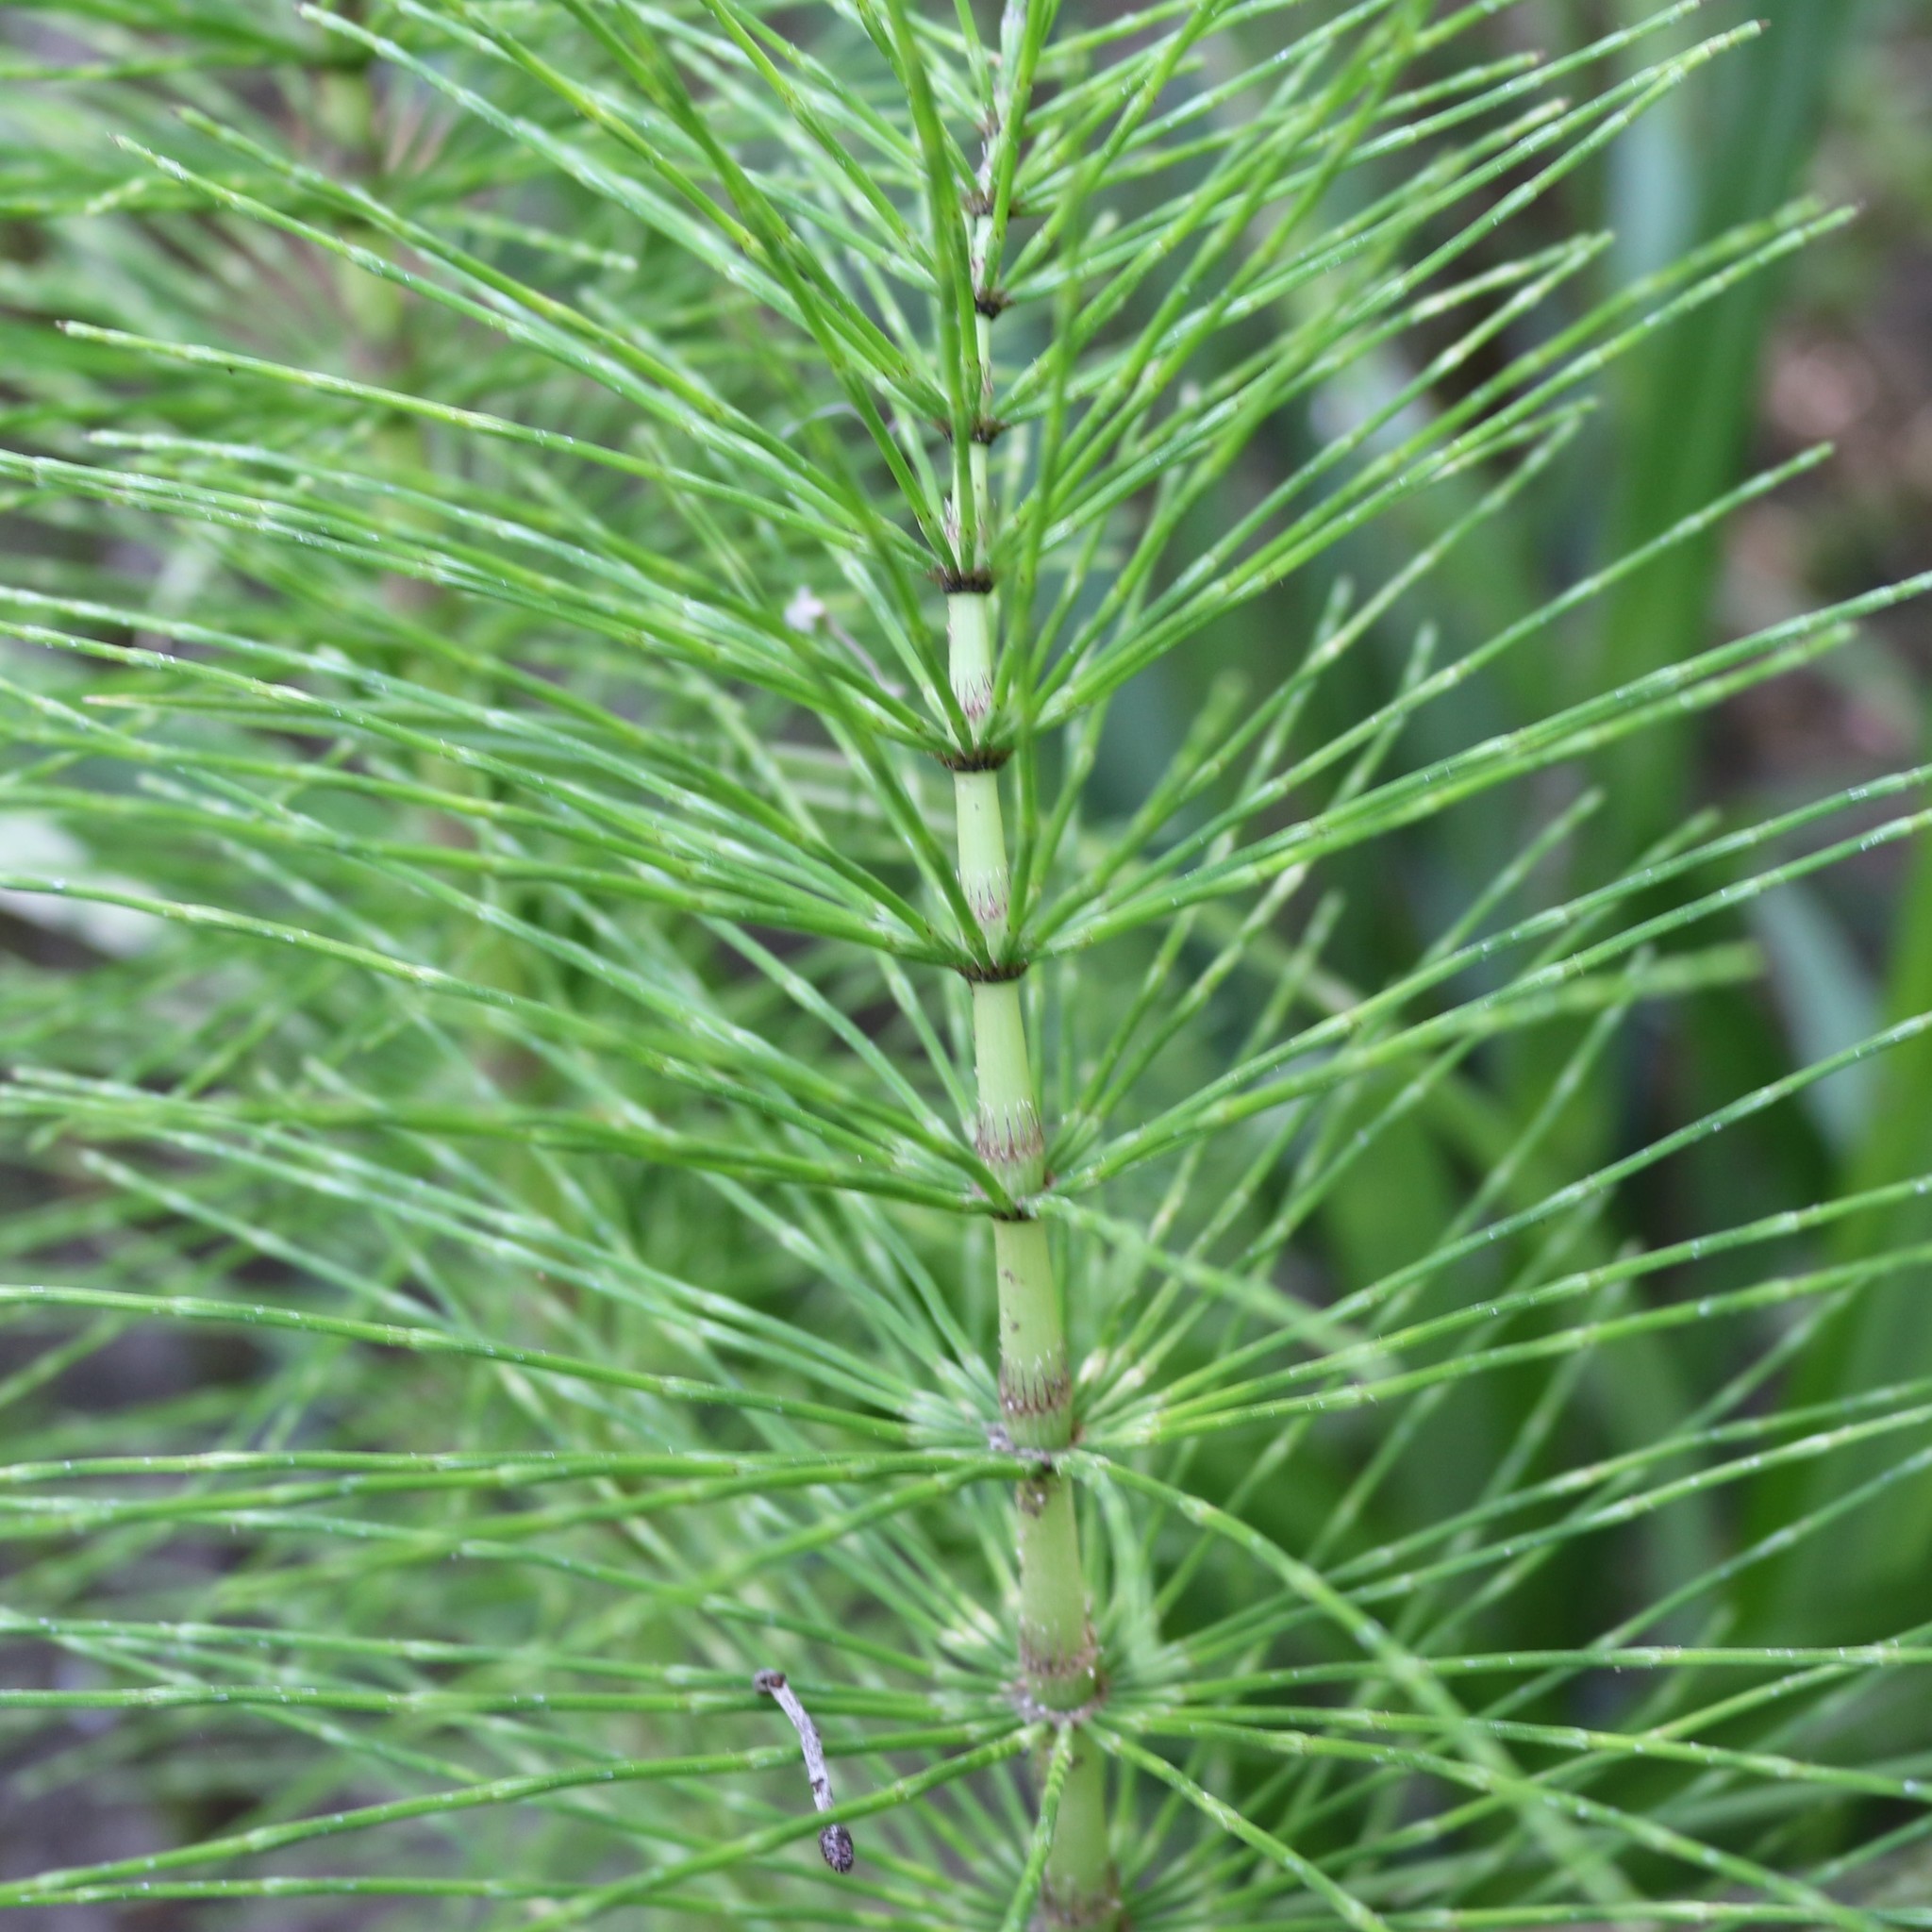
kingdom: Plantae
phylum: Tracheophyta
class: Polypodiopsida
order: Equisetales
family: Equisetaceae
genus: Equisetum
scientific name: Equisetum telmateia
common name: Great horsetail
